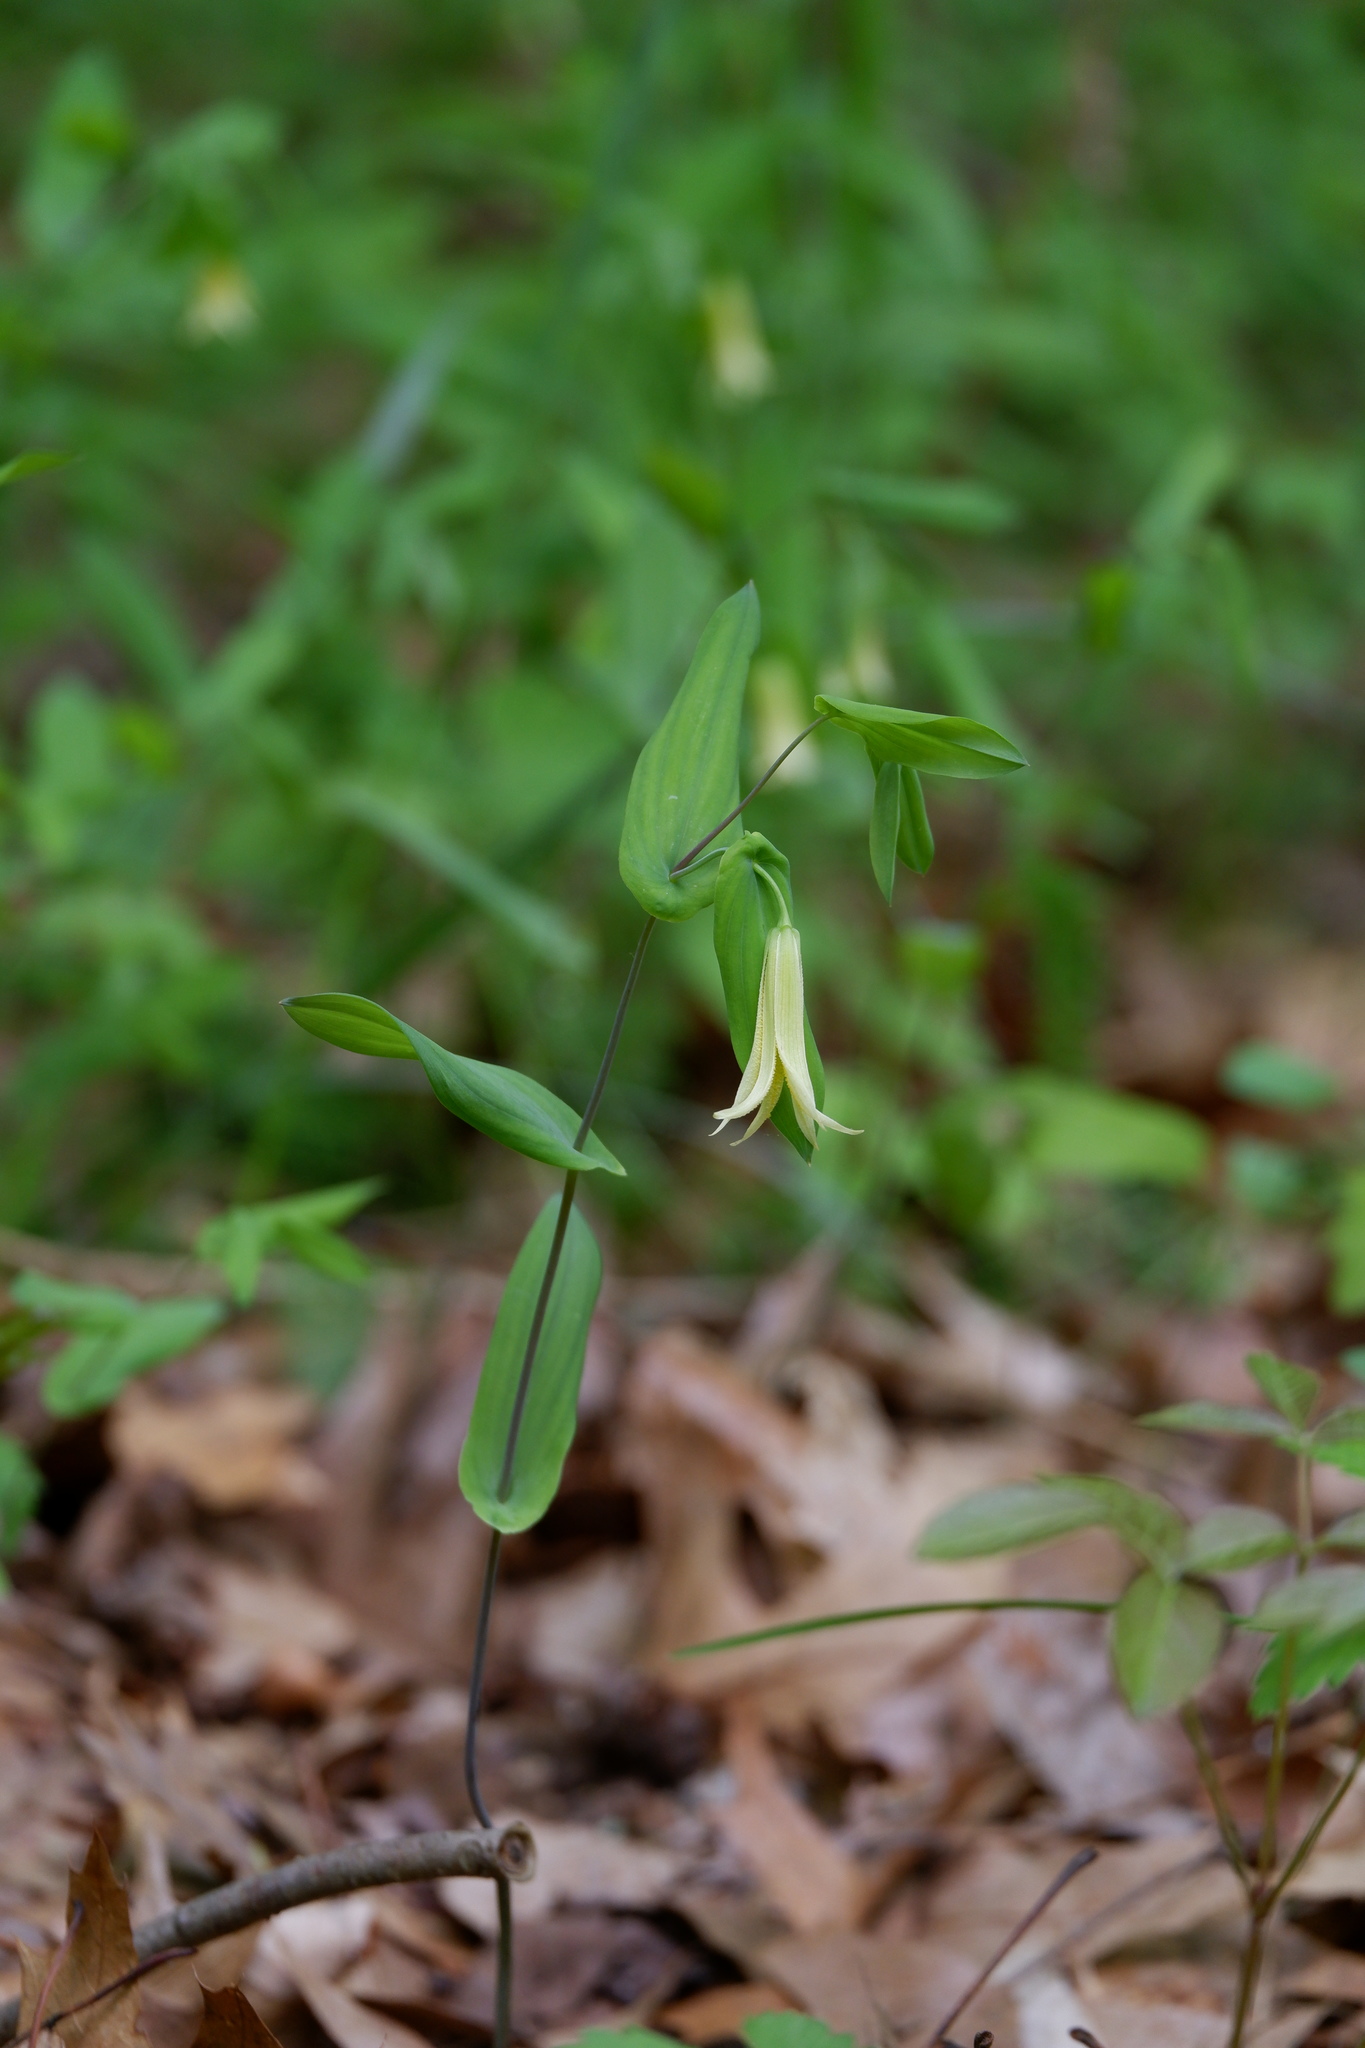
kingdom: Plantae
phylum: Tracheophyta
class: Liliopsida
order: Liliales
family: Colchicaceae
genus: Uvularia
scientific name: Uvularia perfoliata
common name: Perfoliate bellwort
